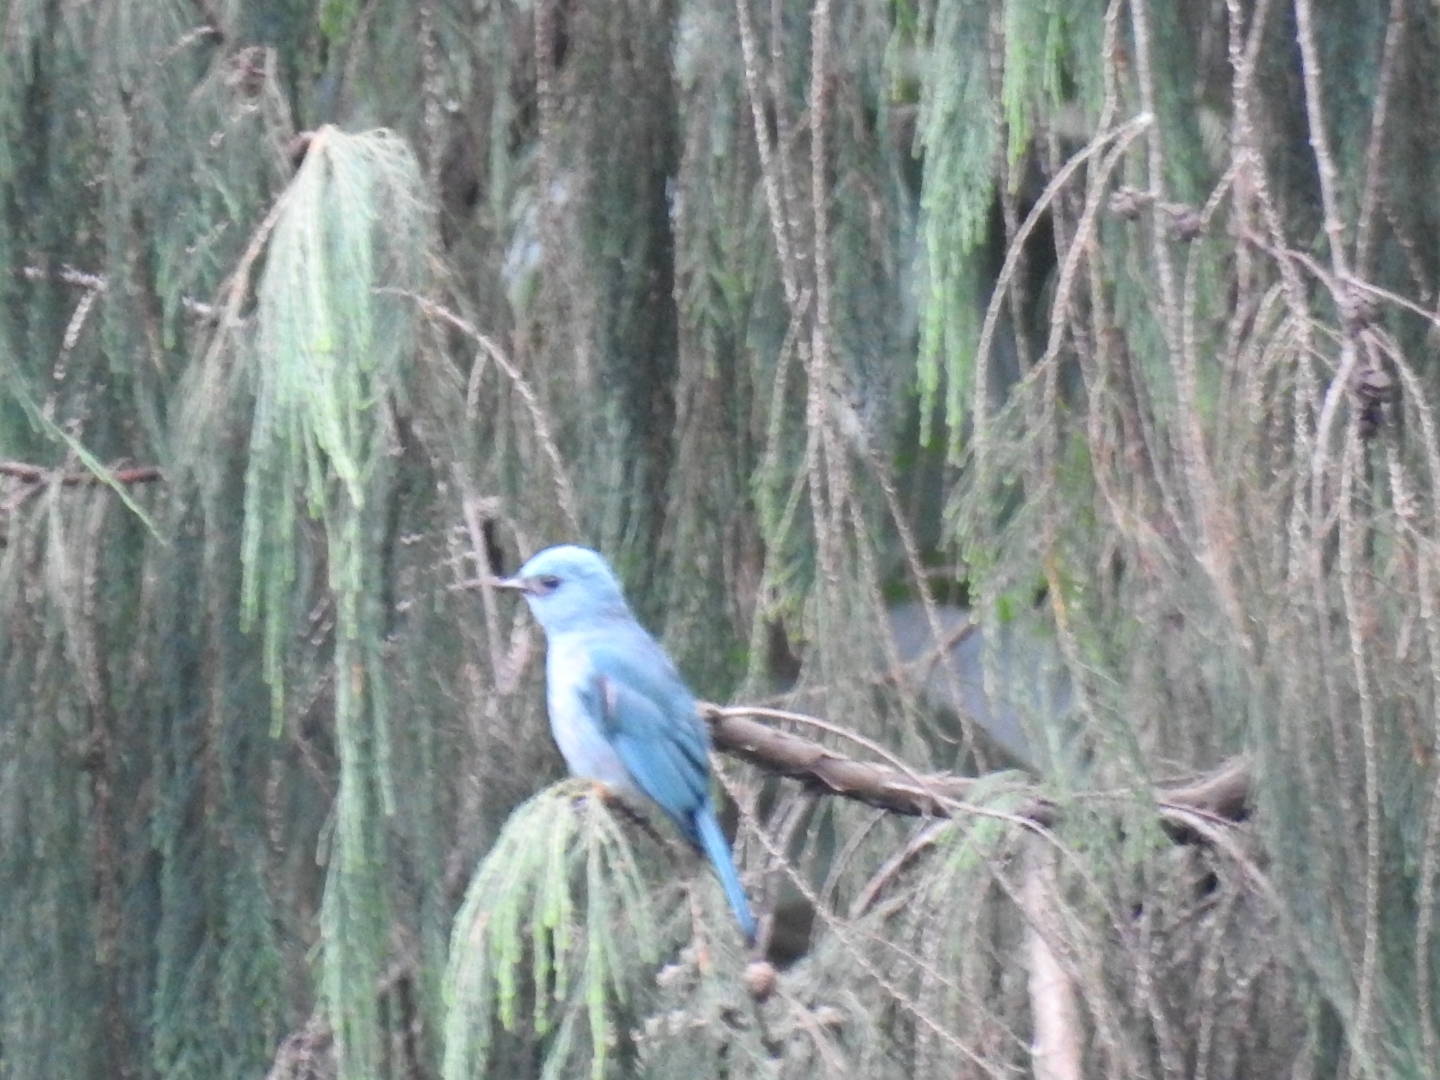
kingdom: Animalia
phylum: Chordata
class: Aves
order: Passeriformes
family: Muscicapidae
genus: Eumyias
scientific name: Eumyias thalassinus
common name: Verditer flycatcher
